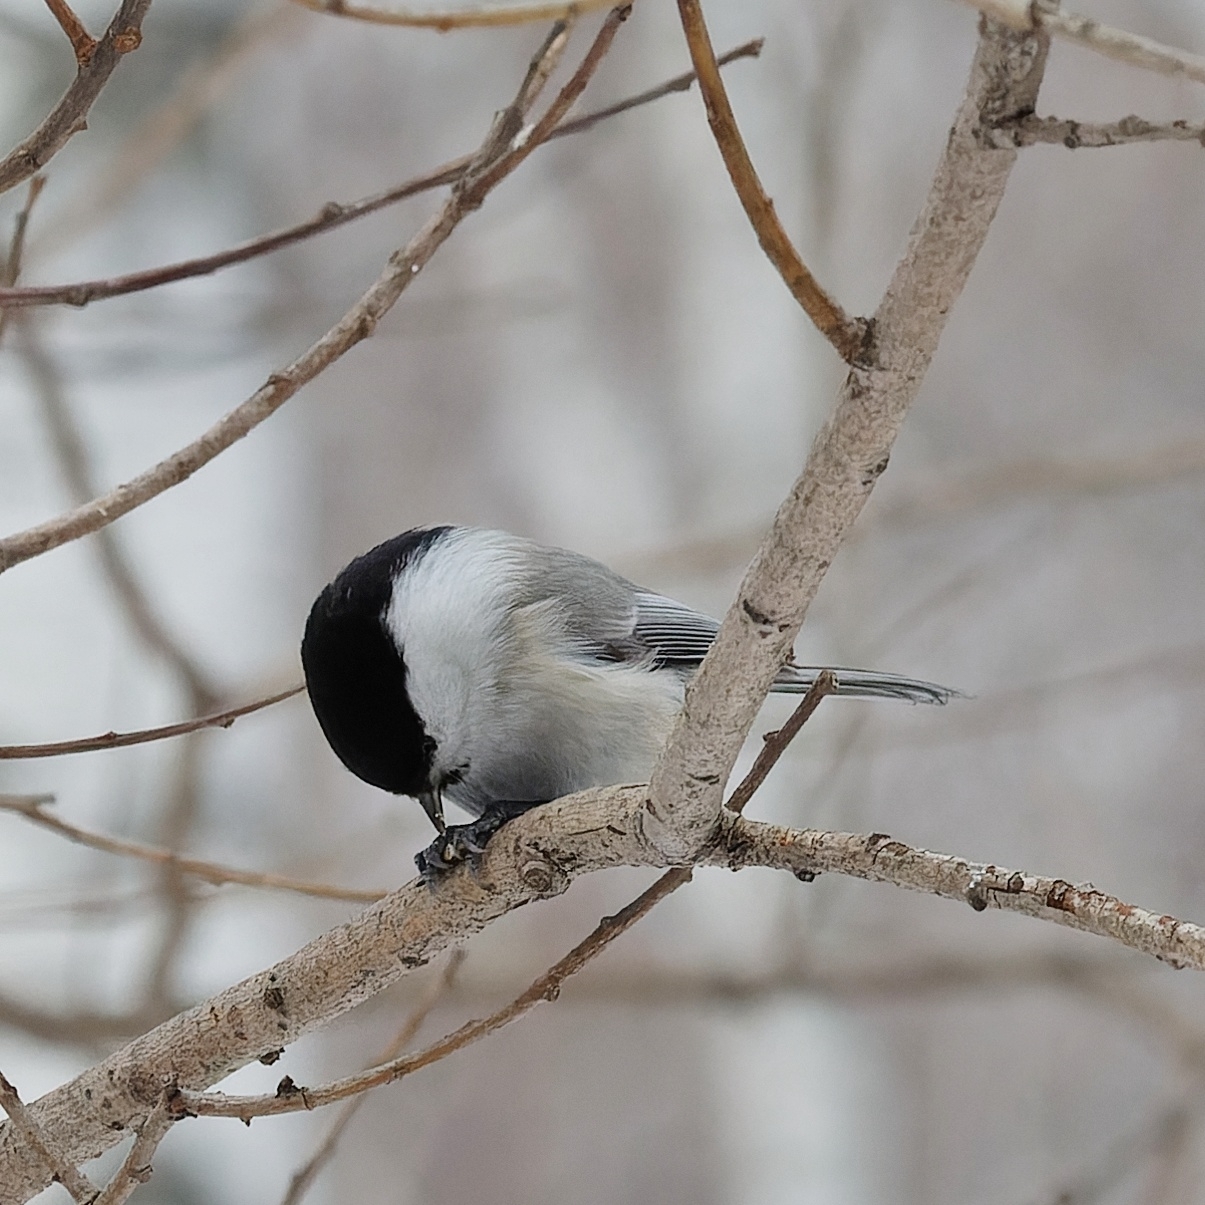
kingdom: Animalia
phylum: Chordata
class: Aves
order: Passeriformes
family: Paridae
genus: Poecile
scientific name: Poecile montanus
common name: Willow tit
